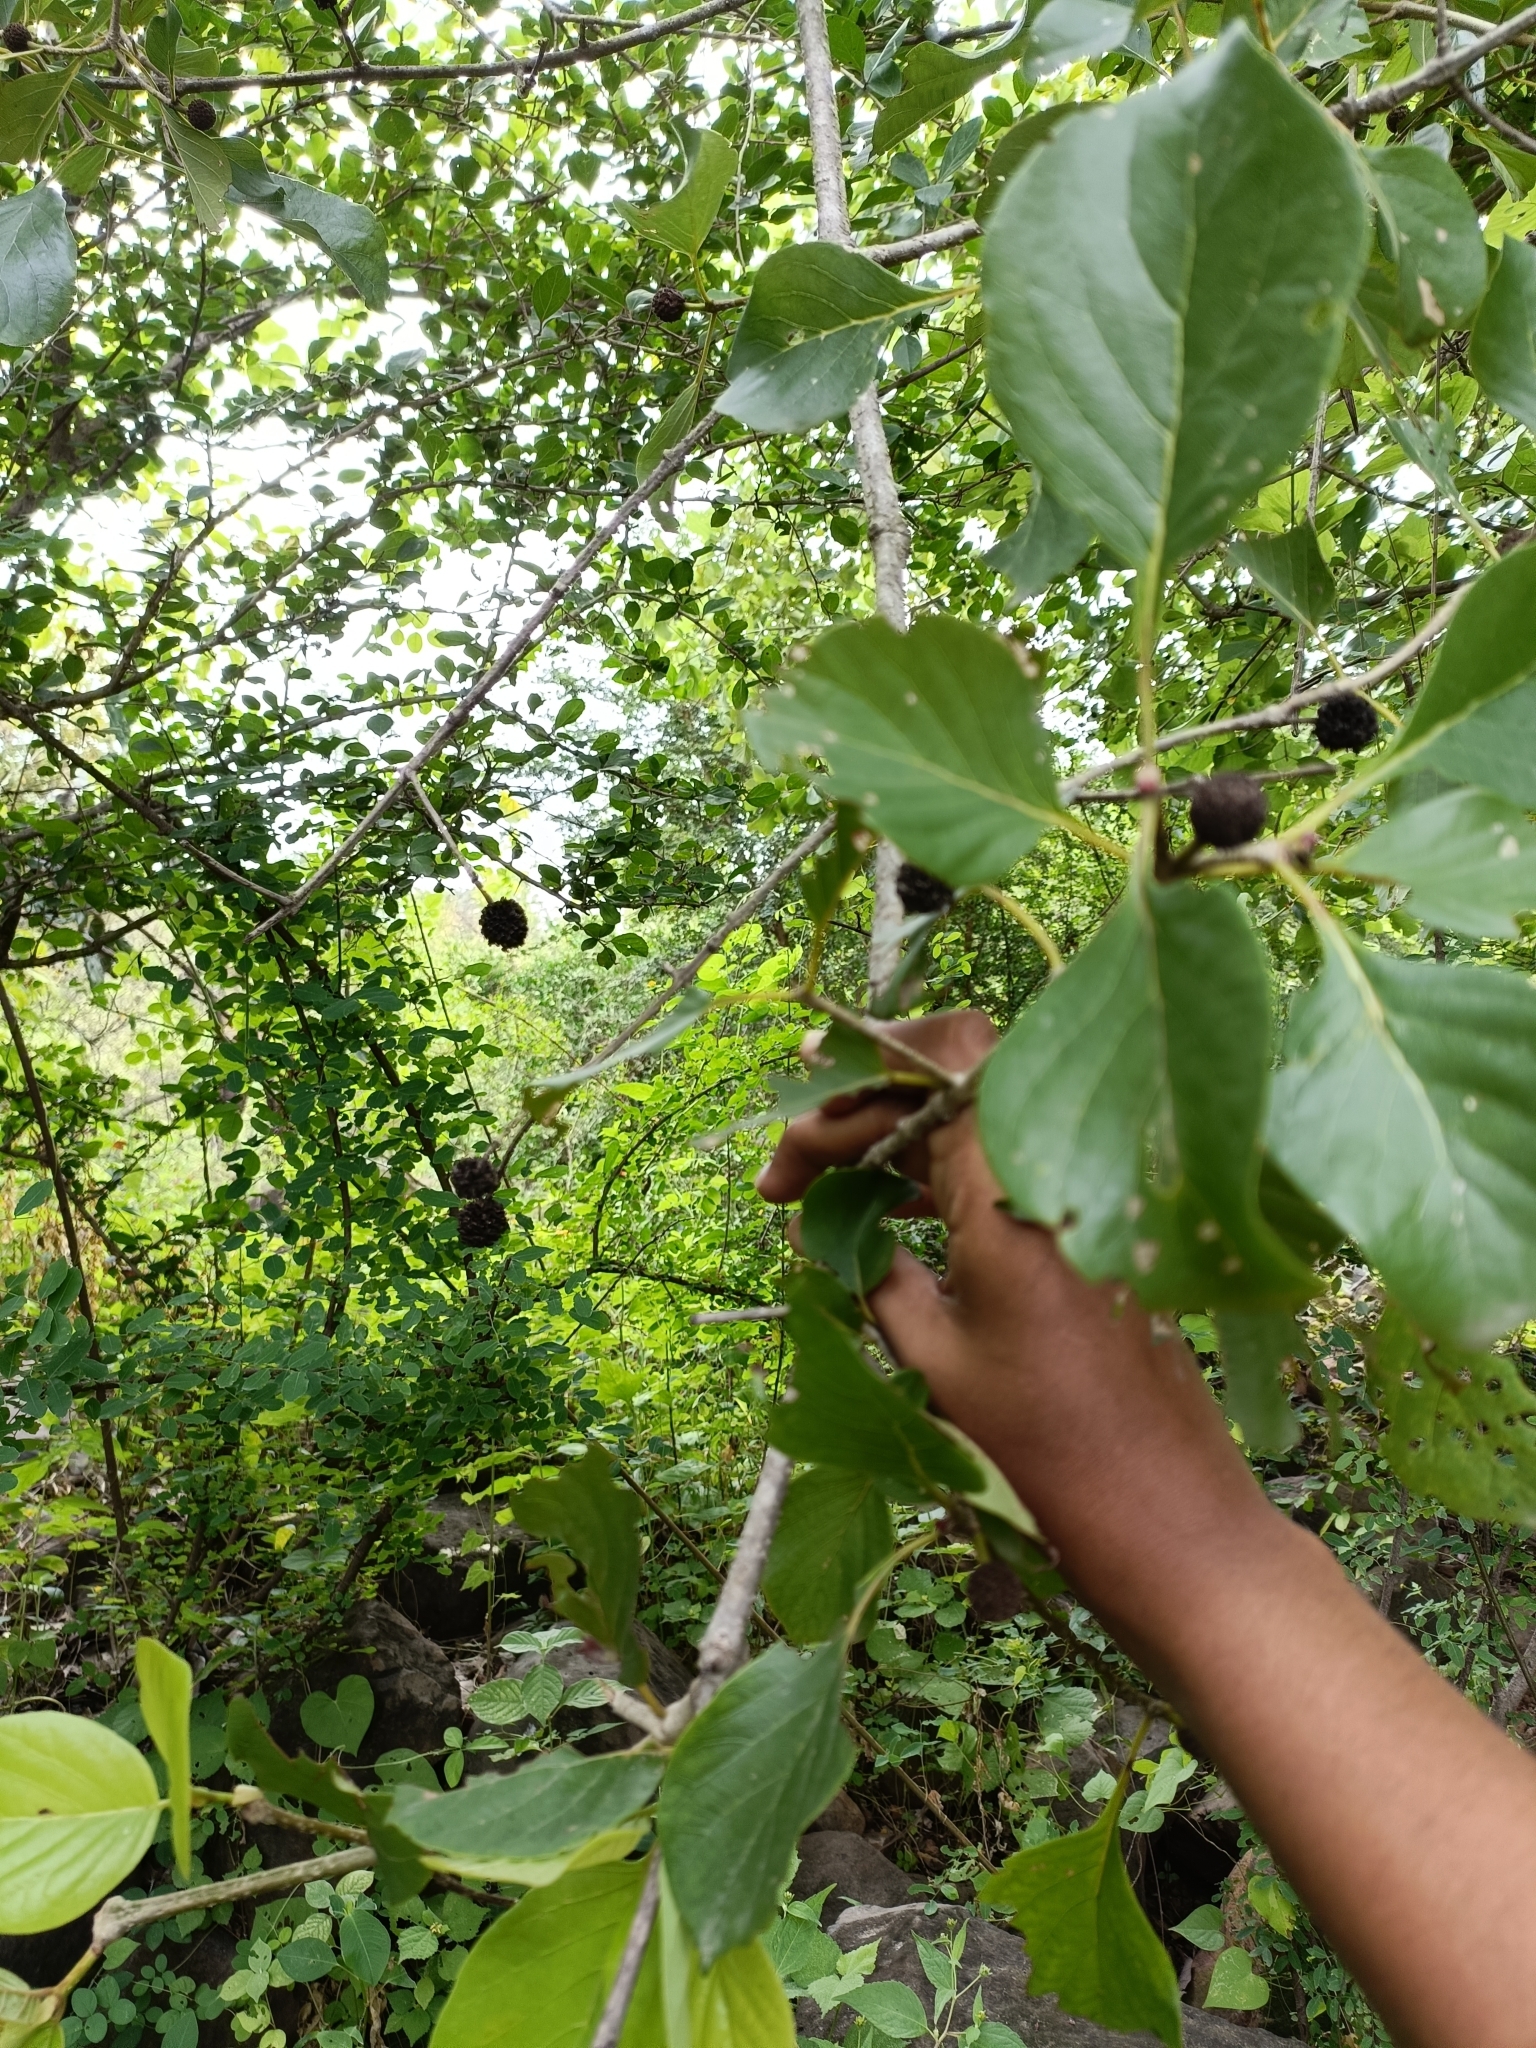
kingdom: Plantae
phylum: Tracheophyta
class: Magnoliopsida
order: Gentianales
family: Rubiaceae
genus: Mitragyna
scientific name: Mitragyna parvifolia
